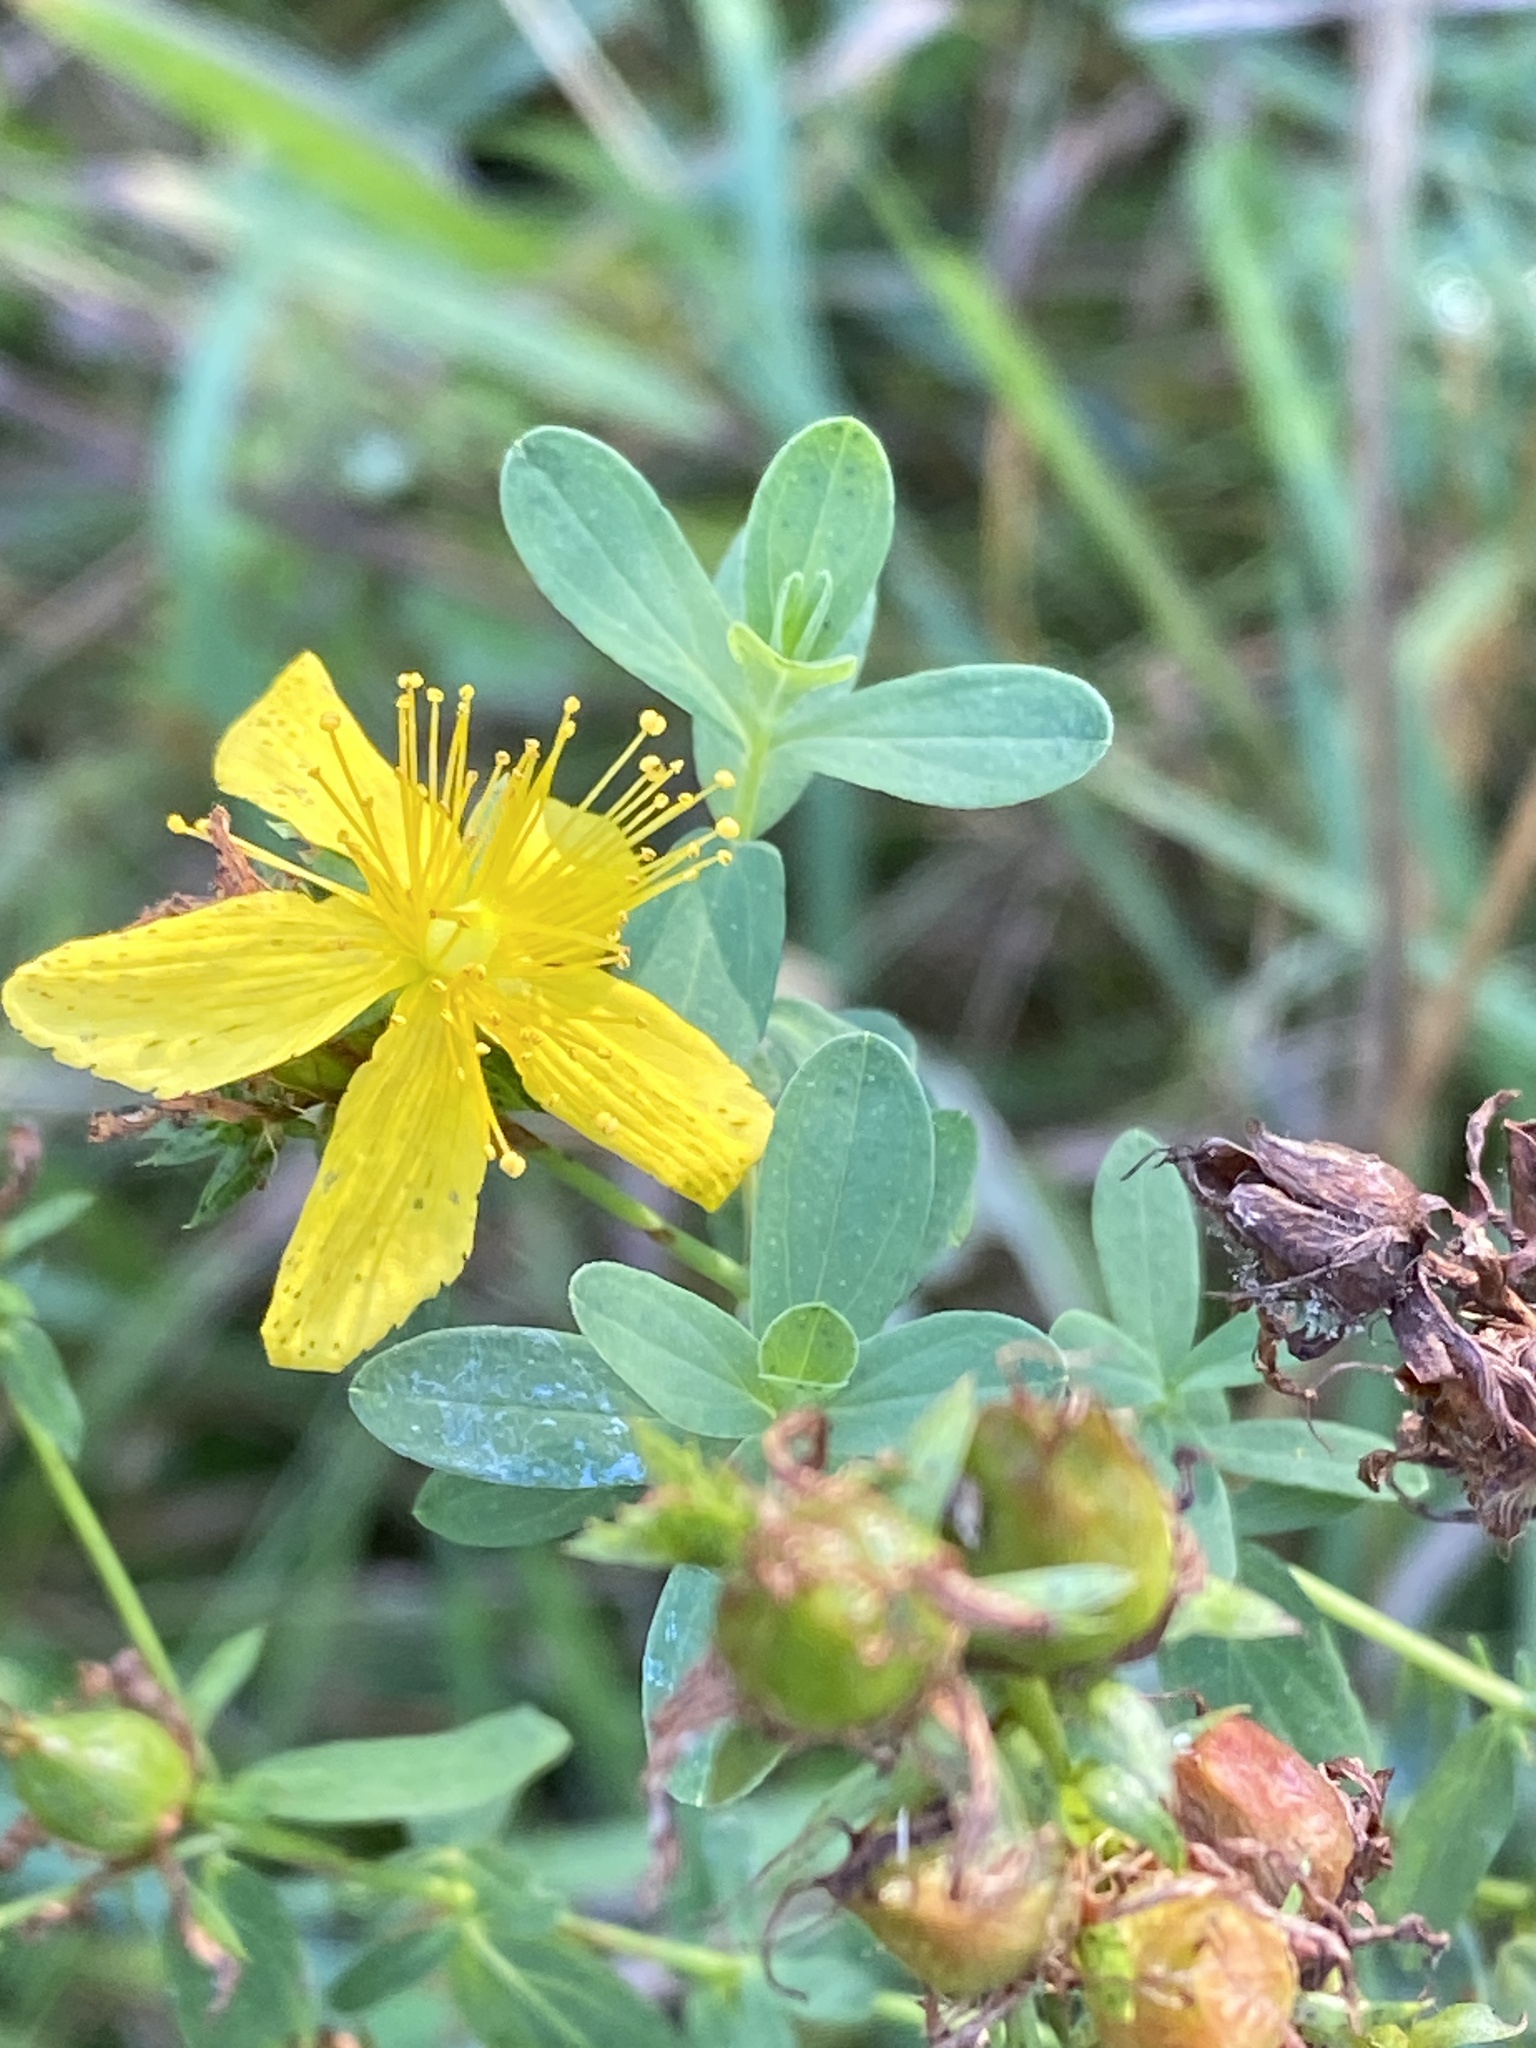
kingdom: Plantae
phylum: Tracheophyta
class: Magnoliopsida
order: Malpighiales
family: Hypericaceae
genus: Hypericum
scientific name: Hypericum perforatum
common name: Common st. johnswort
